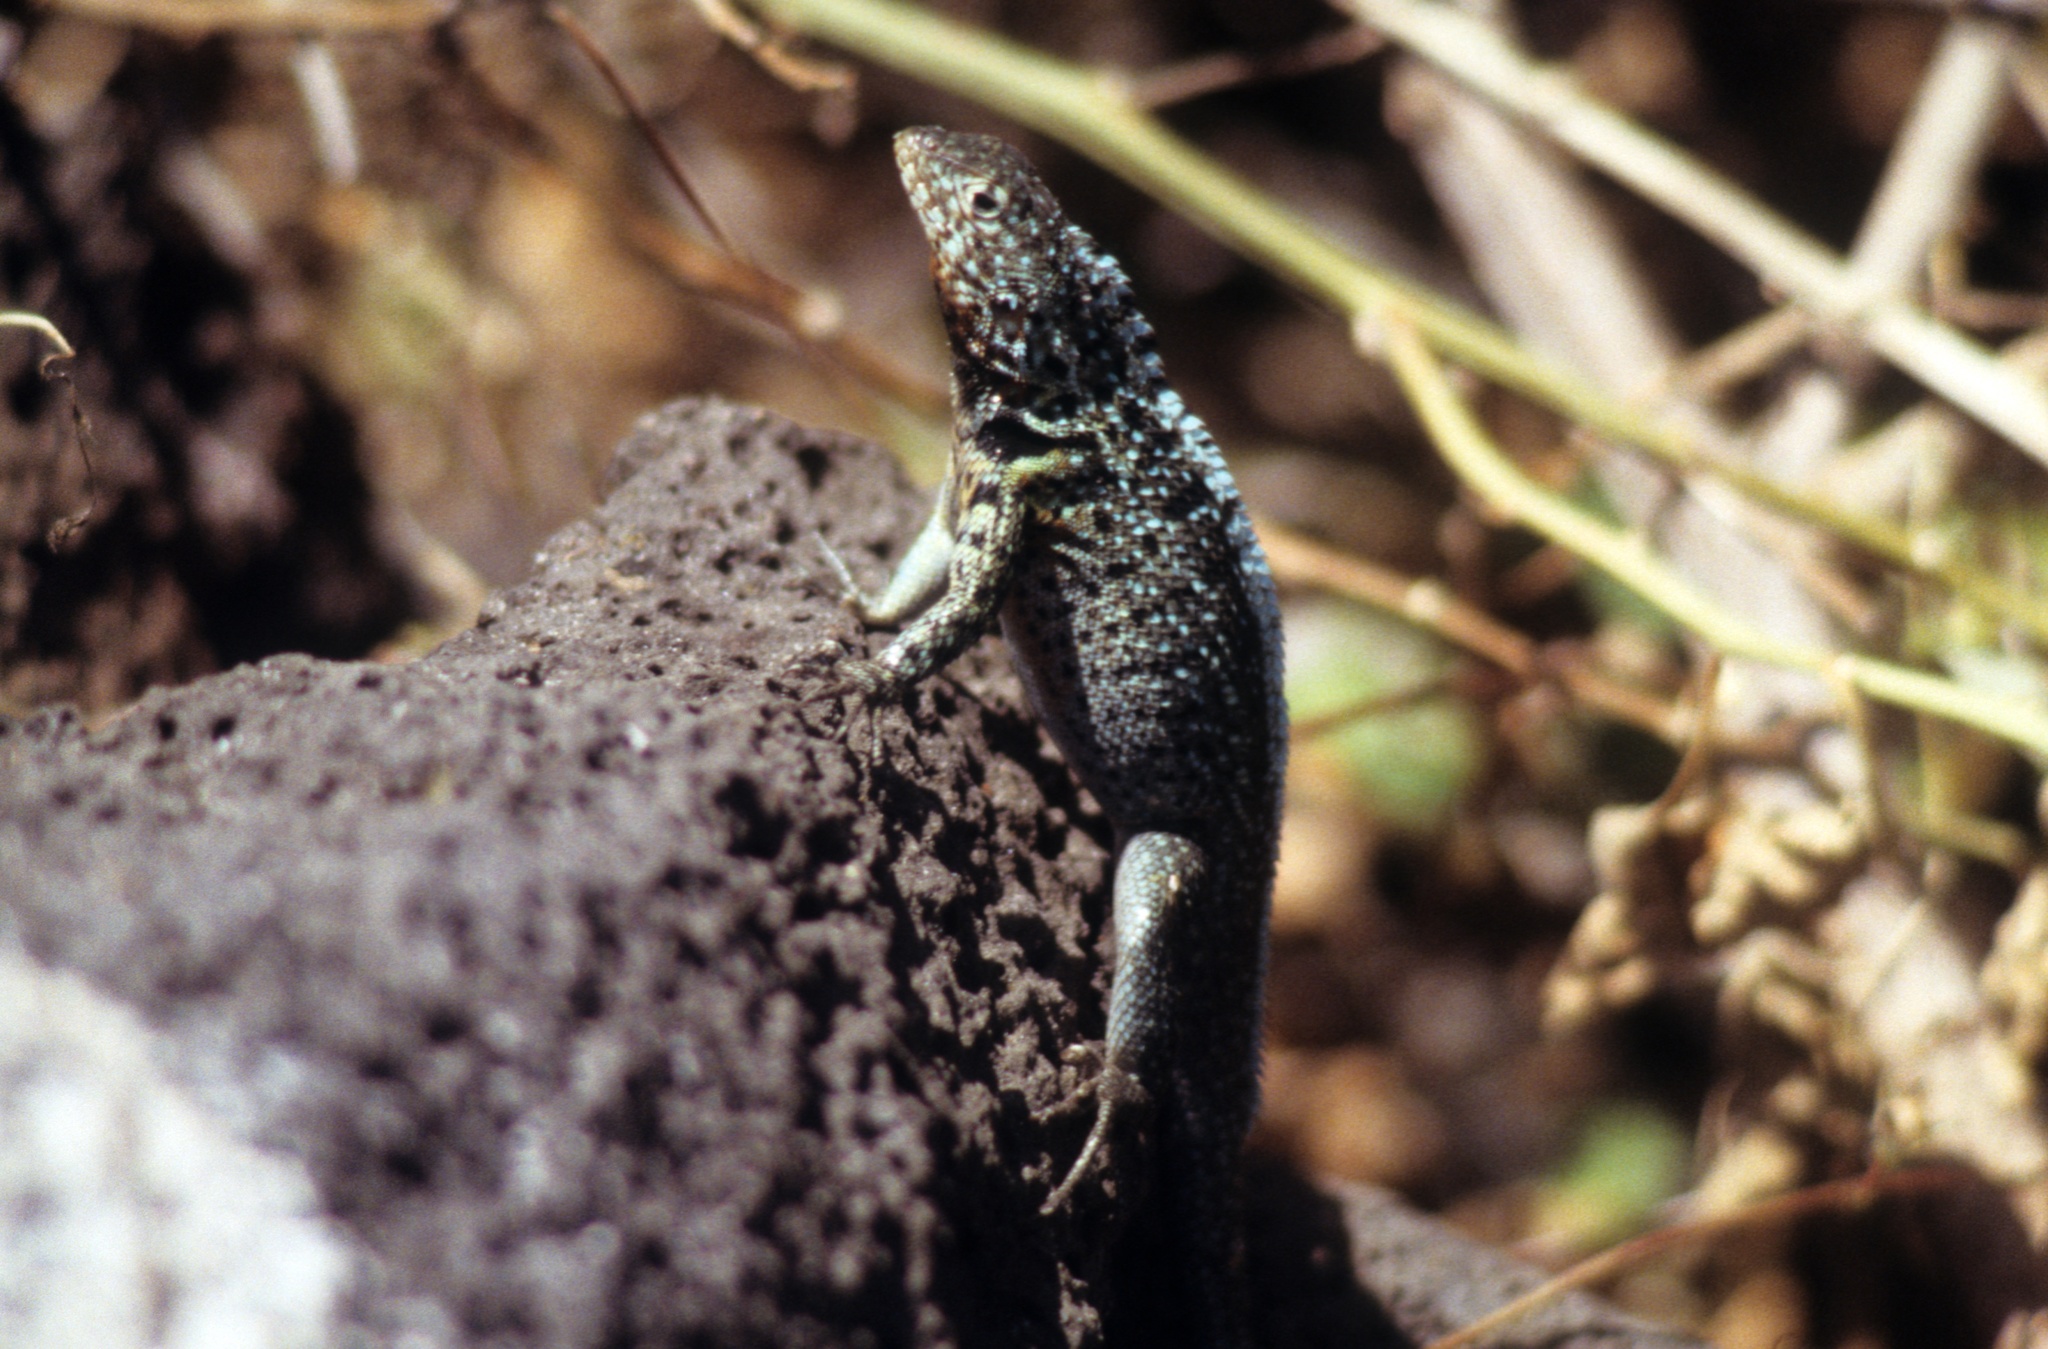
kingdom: Animalia
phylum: Chordata
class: Squamata
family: Tropiduridae
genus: Microlophus
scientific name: Microlophus indefatigabilis
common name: Galapagos lava lizard
